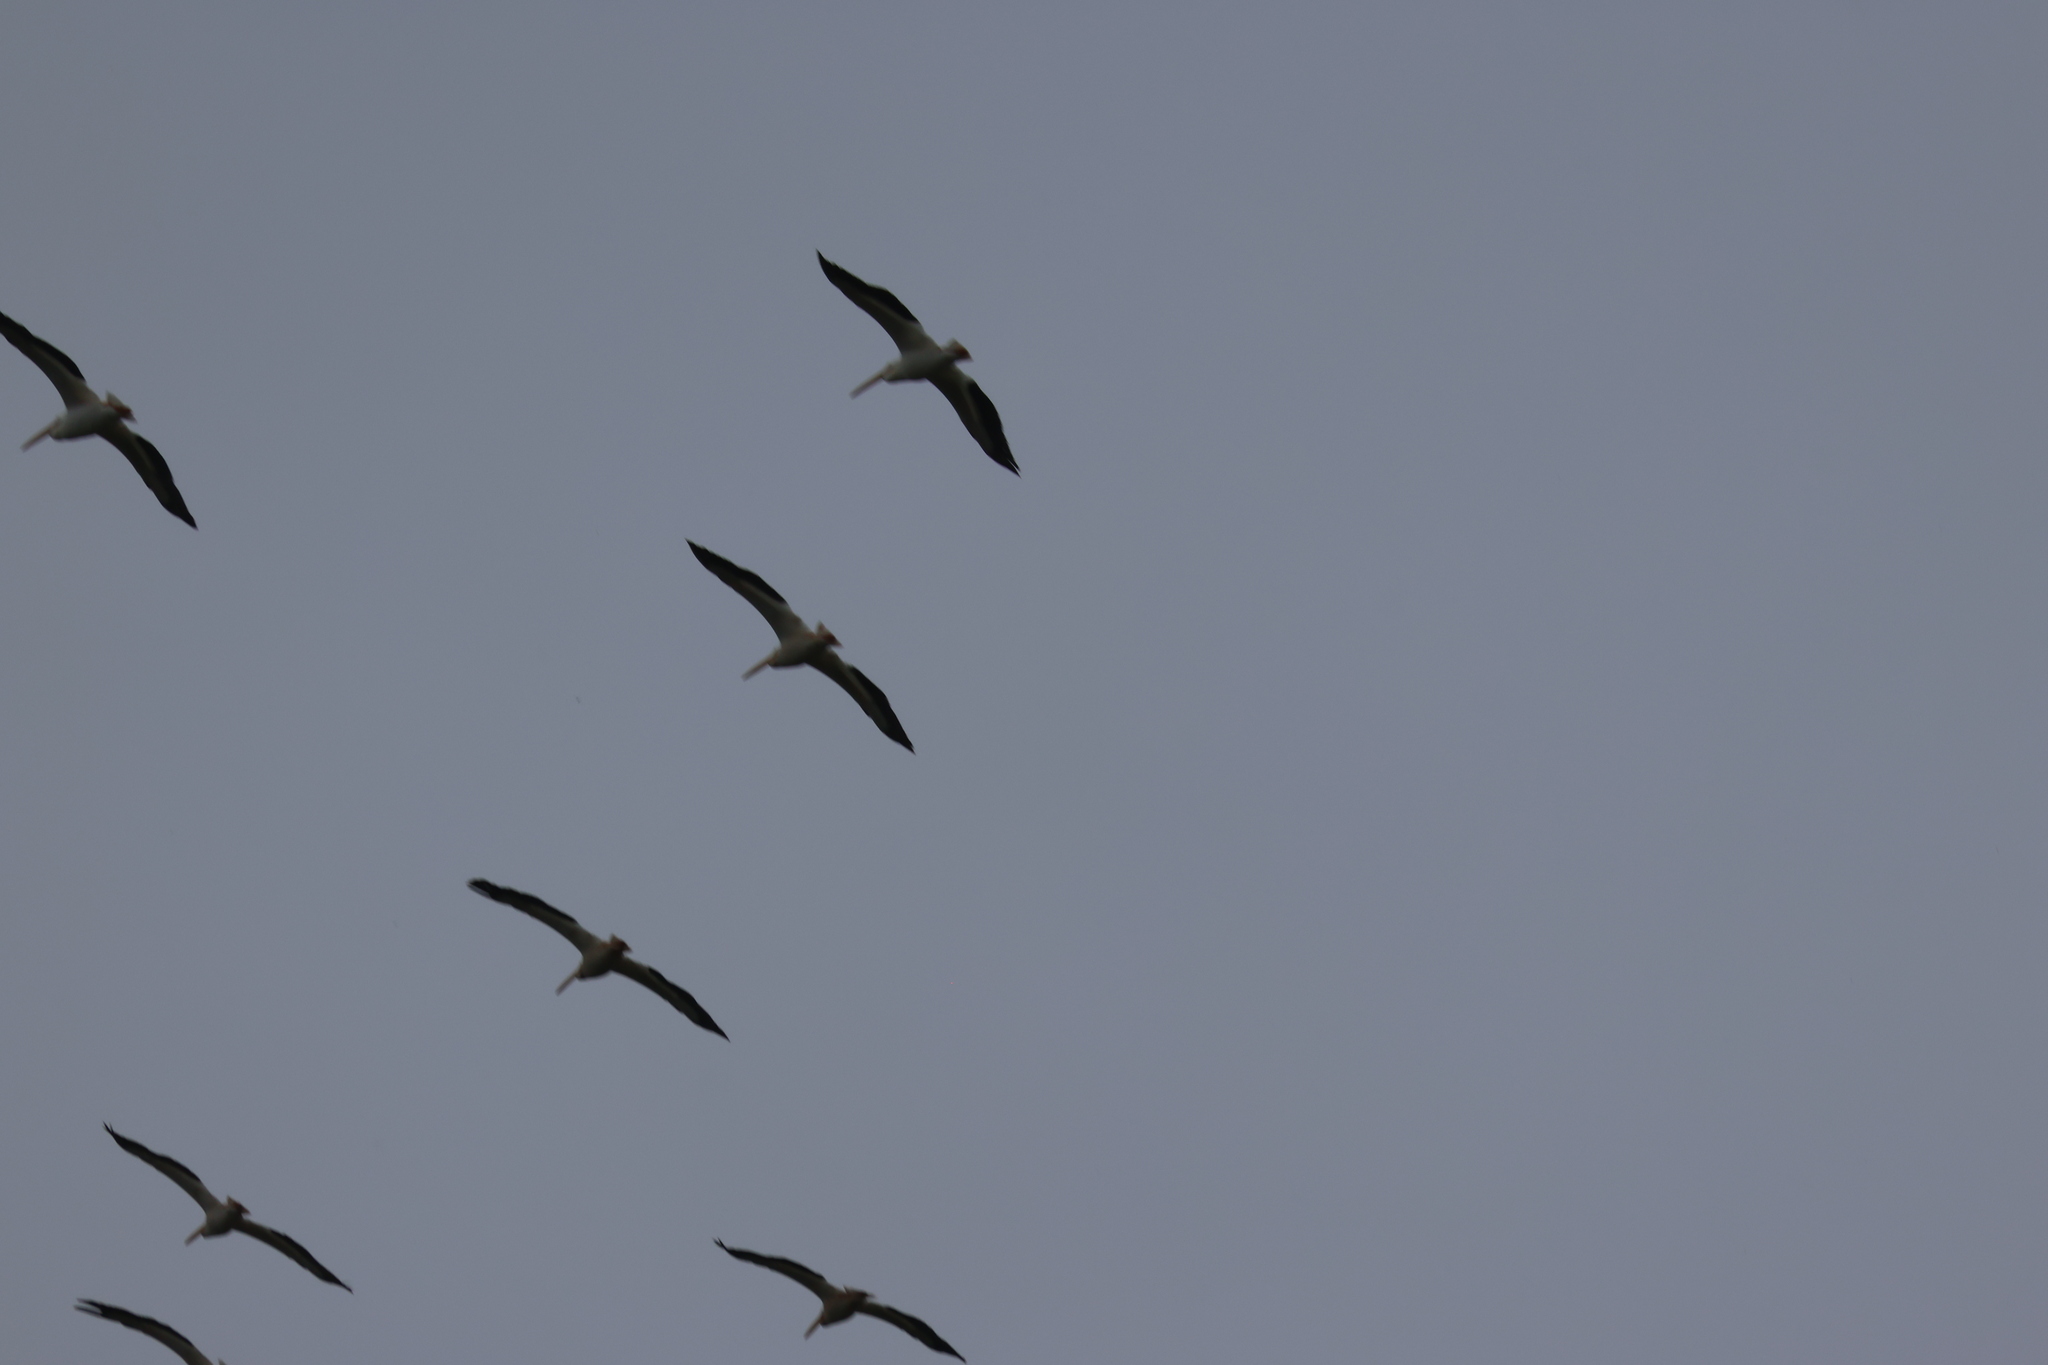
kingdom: Animalia
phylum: Chordata
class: Aves
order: Pelecaniformes
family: Pelecanidae
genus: Pelecanus
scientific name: Pelecanus erythrorhynchos
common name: American white pelican
